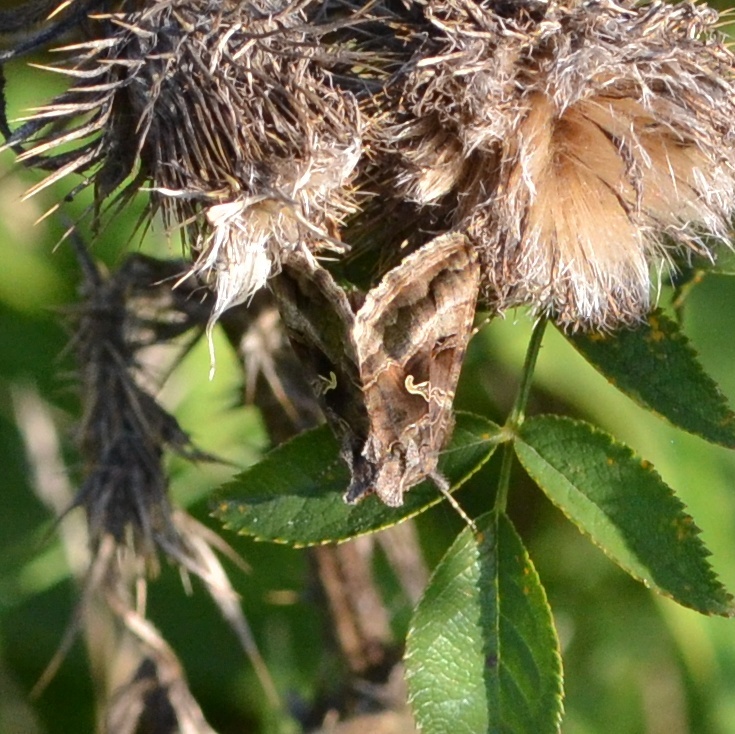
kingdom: Animalia
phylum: Arthropoda
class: Insecta
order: Lepidoptera
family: Noctuidae
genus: Autographa
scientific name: Autographa gamma
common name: Silver y
